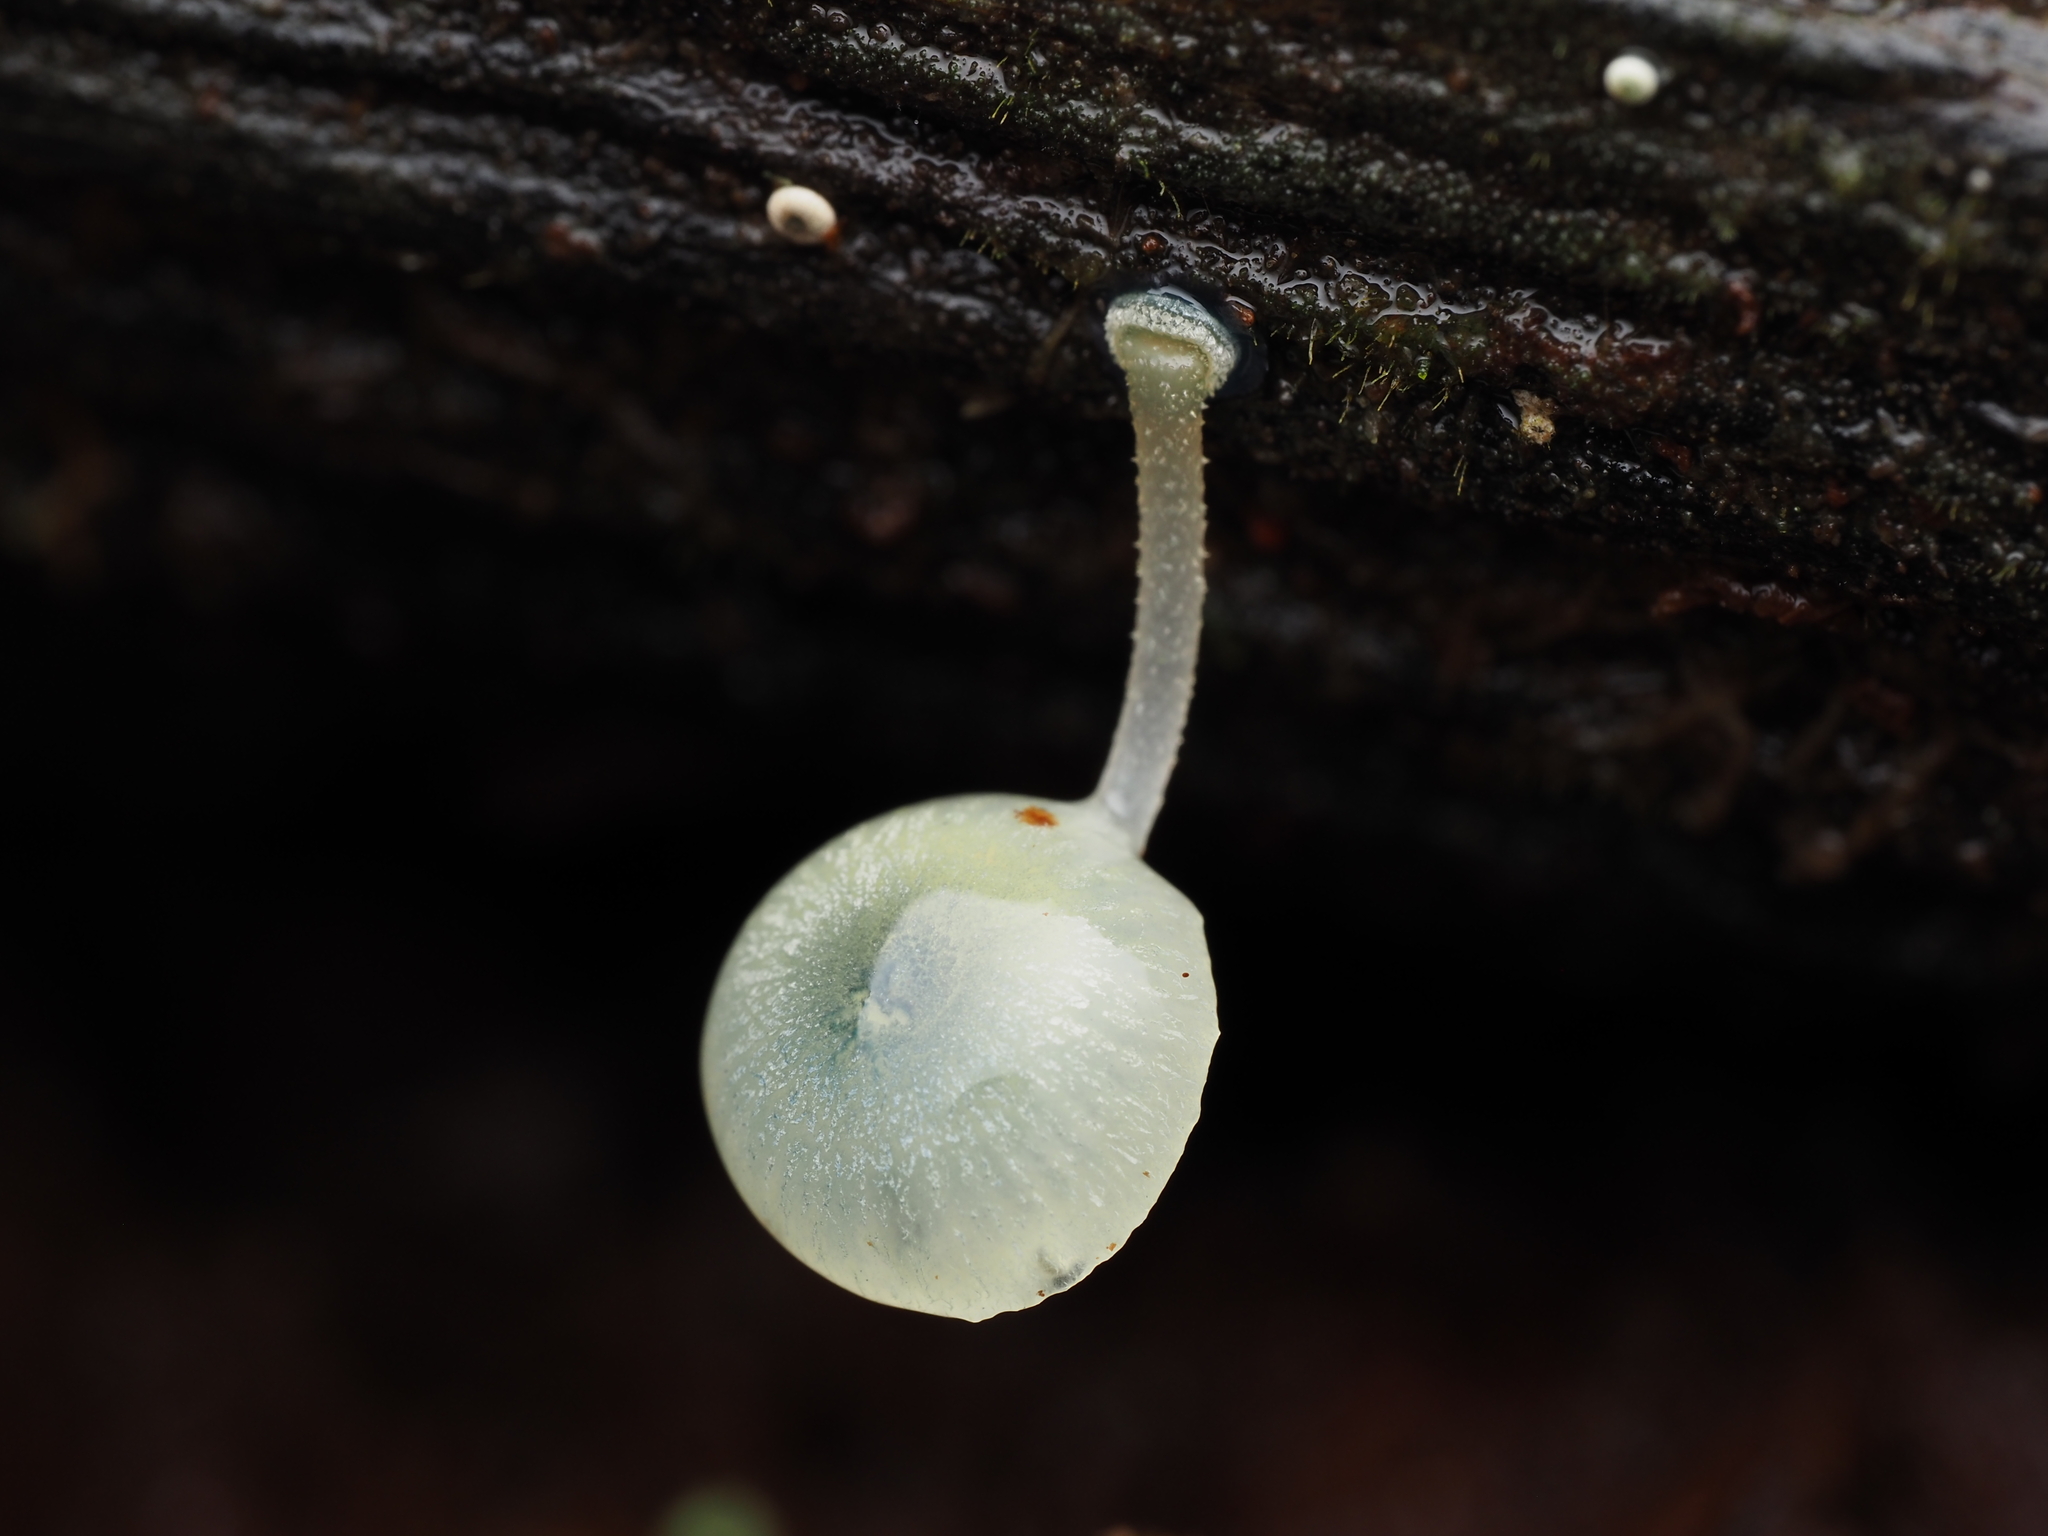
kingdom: Fungi
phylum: Basidiomycota
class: Agaricomycetes
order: Agaricales
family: Mycenaceae
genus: Mycena
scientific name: Mycena interrupta
